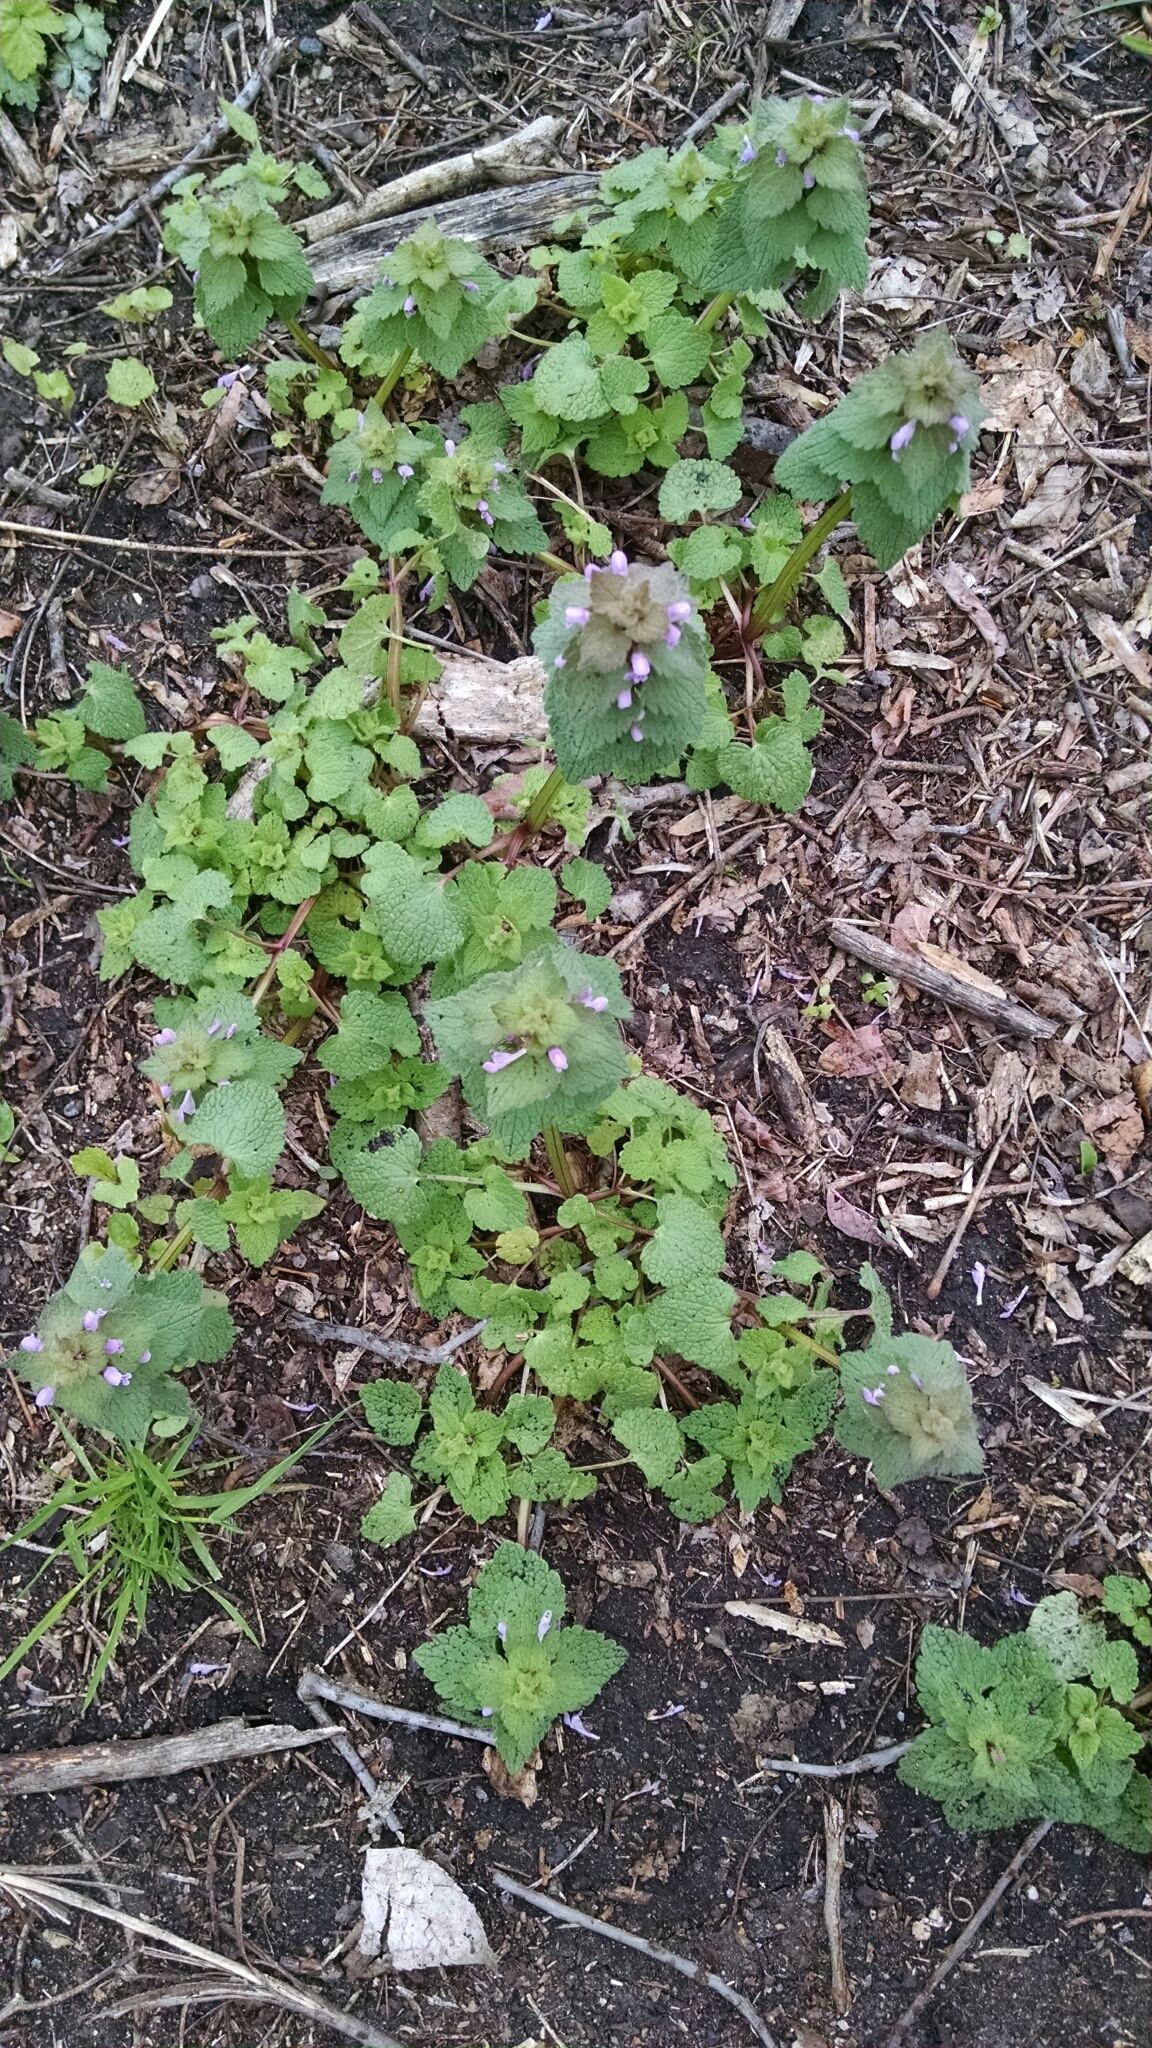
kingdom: Plantae
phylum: Tracheophyta
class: Magnoliopsida
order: Lamiales
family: Lamiaceae
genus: Lamium
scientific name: Lamium purpureum
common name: Red dead-nettle
